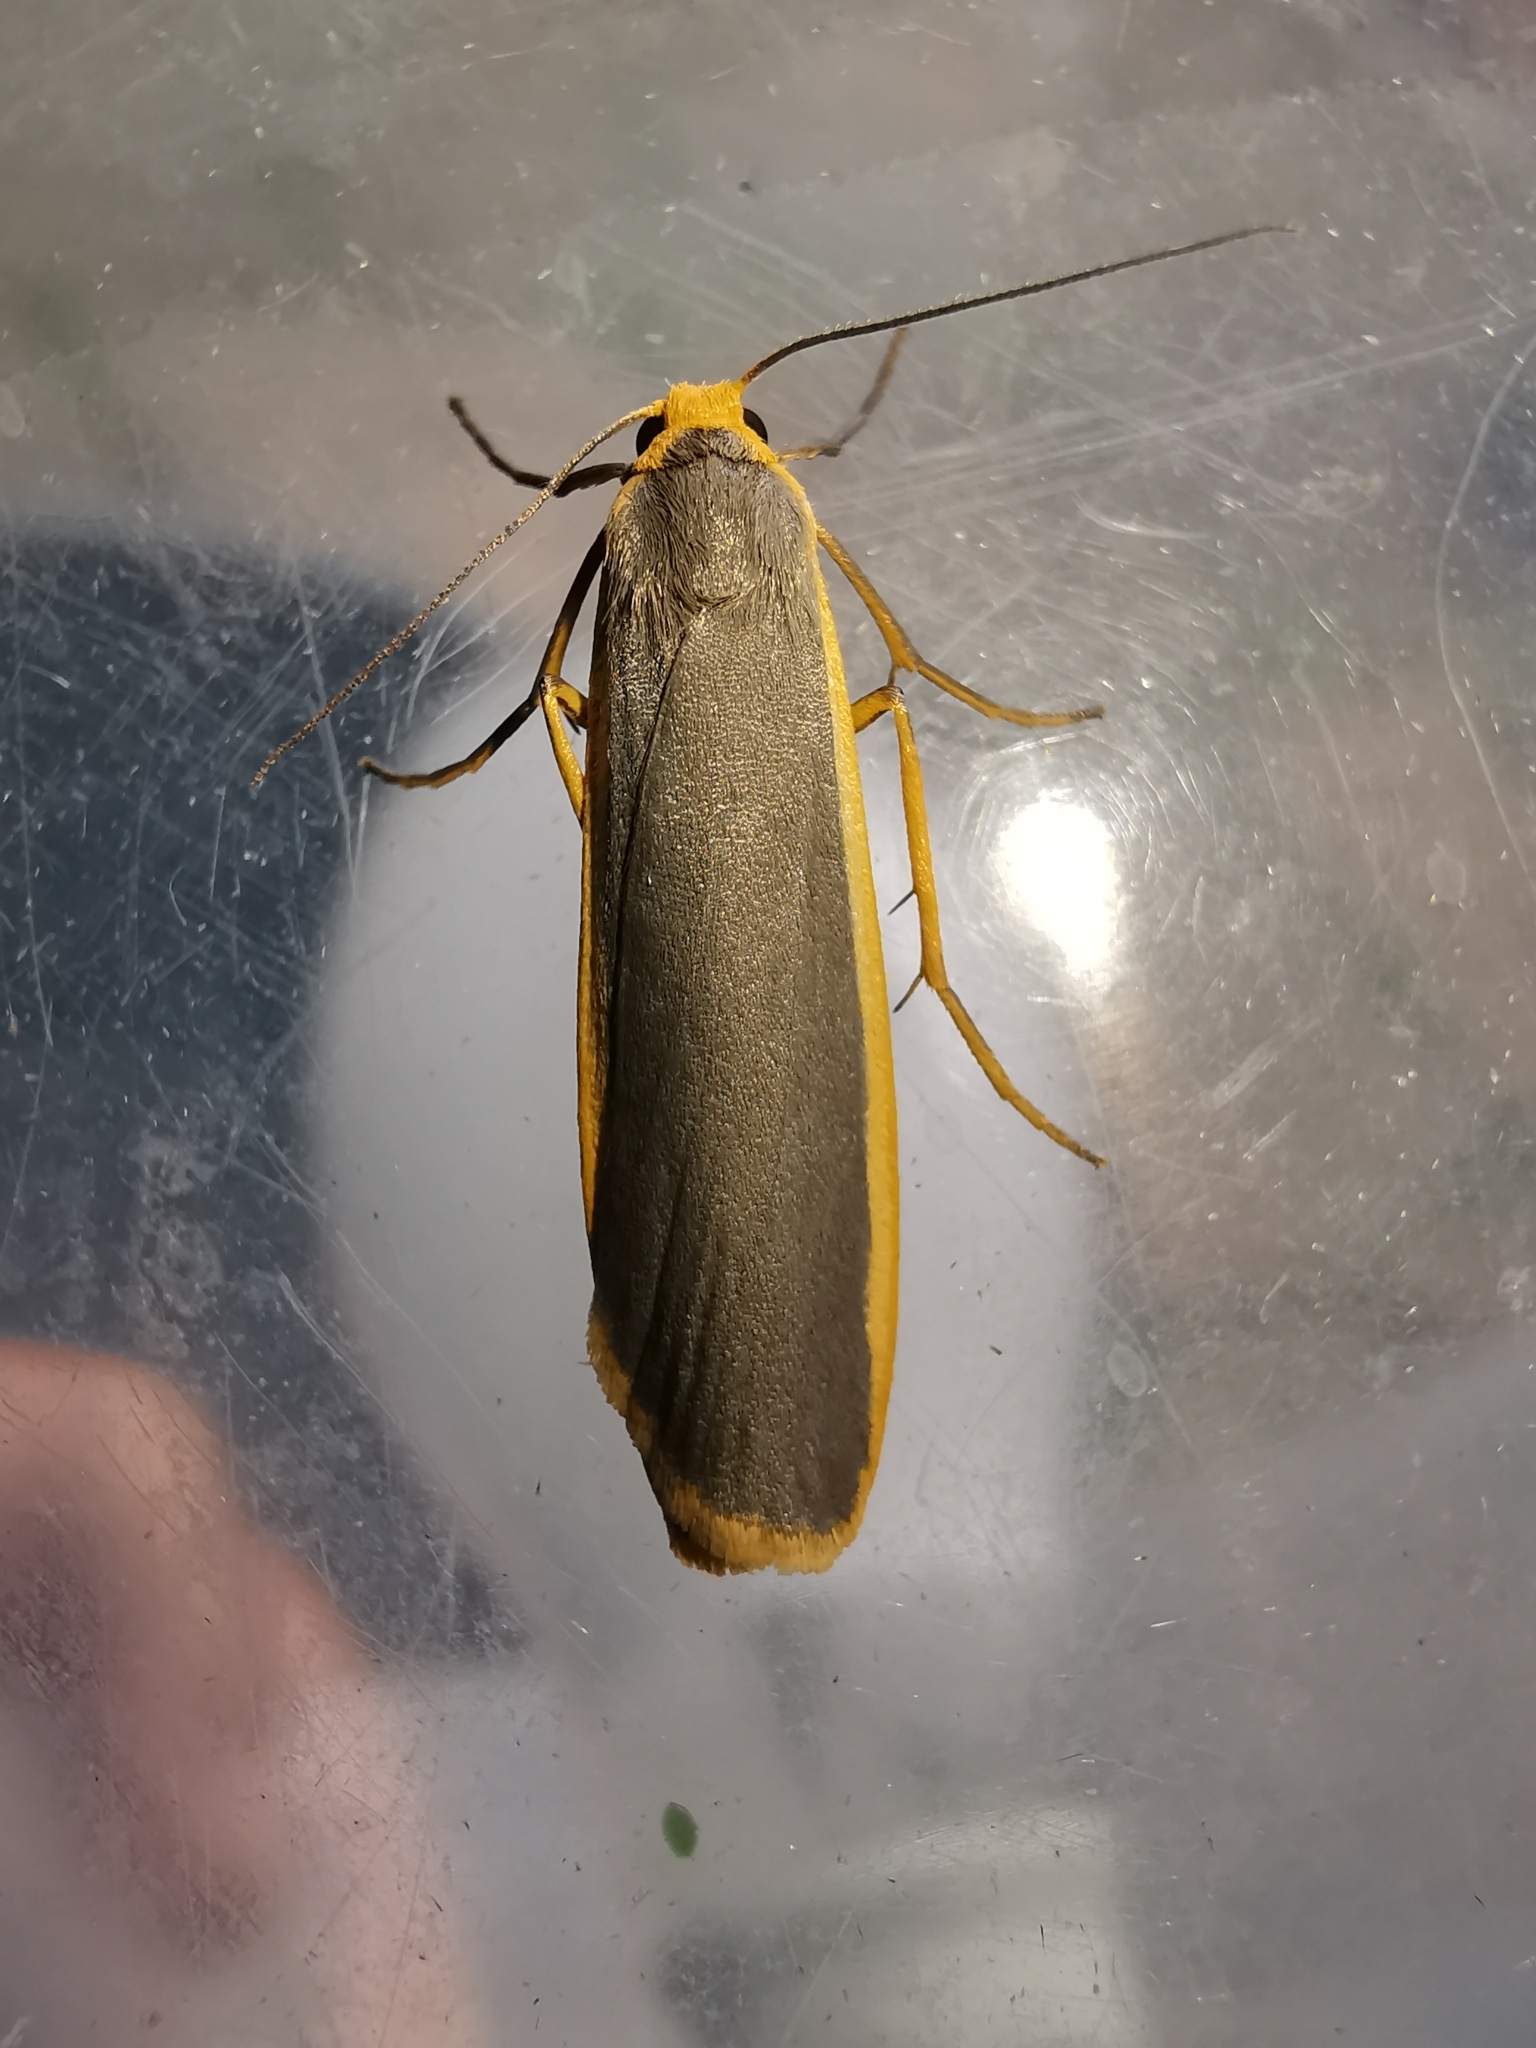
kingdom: Animalia
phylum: Arthropoda
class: Insecta
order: Lepidoptera
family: Erebidae
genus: Nyea
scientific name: Nyea lurideola
